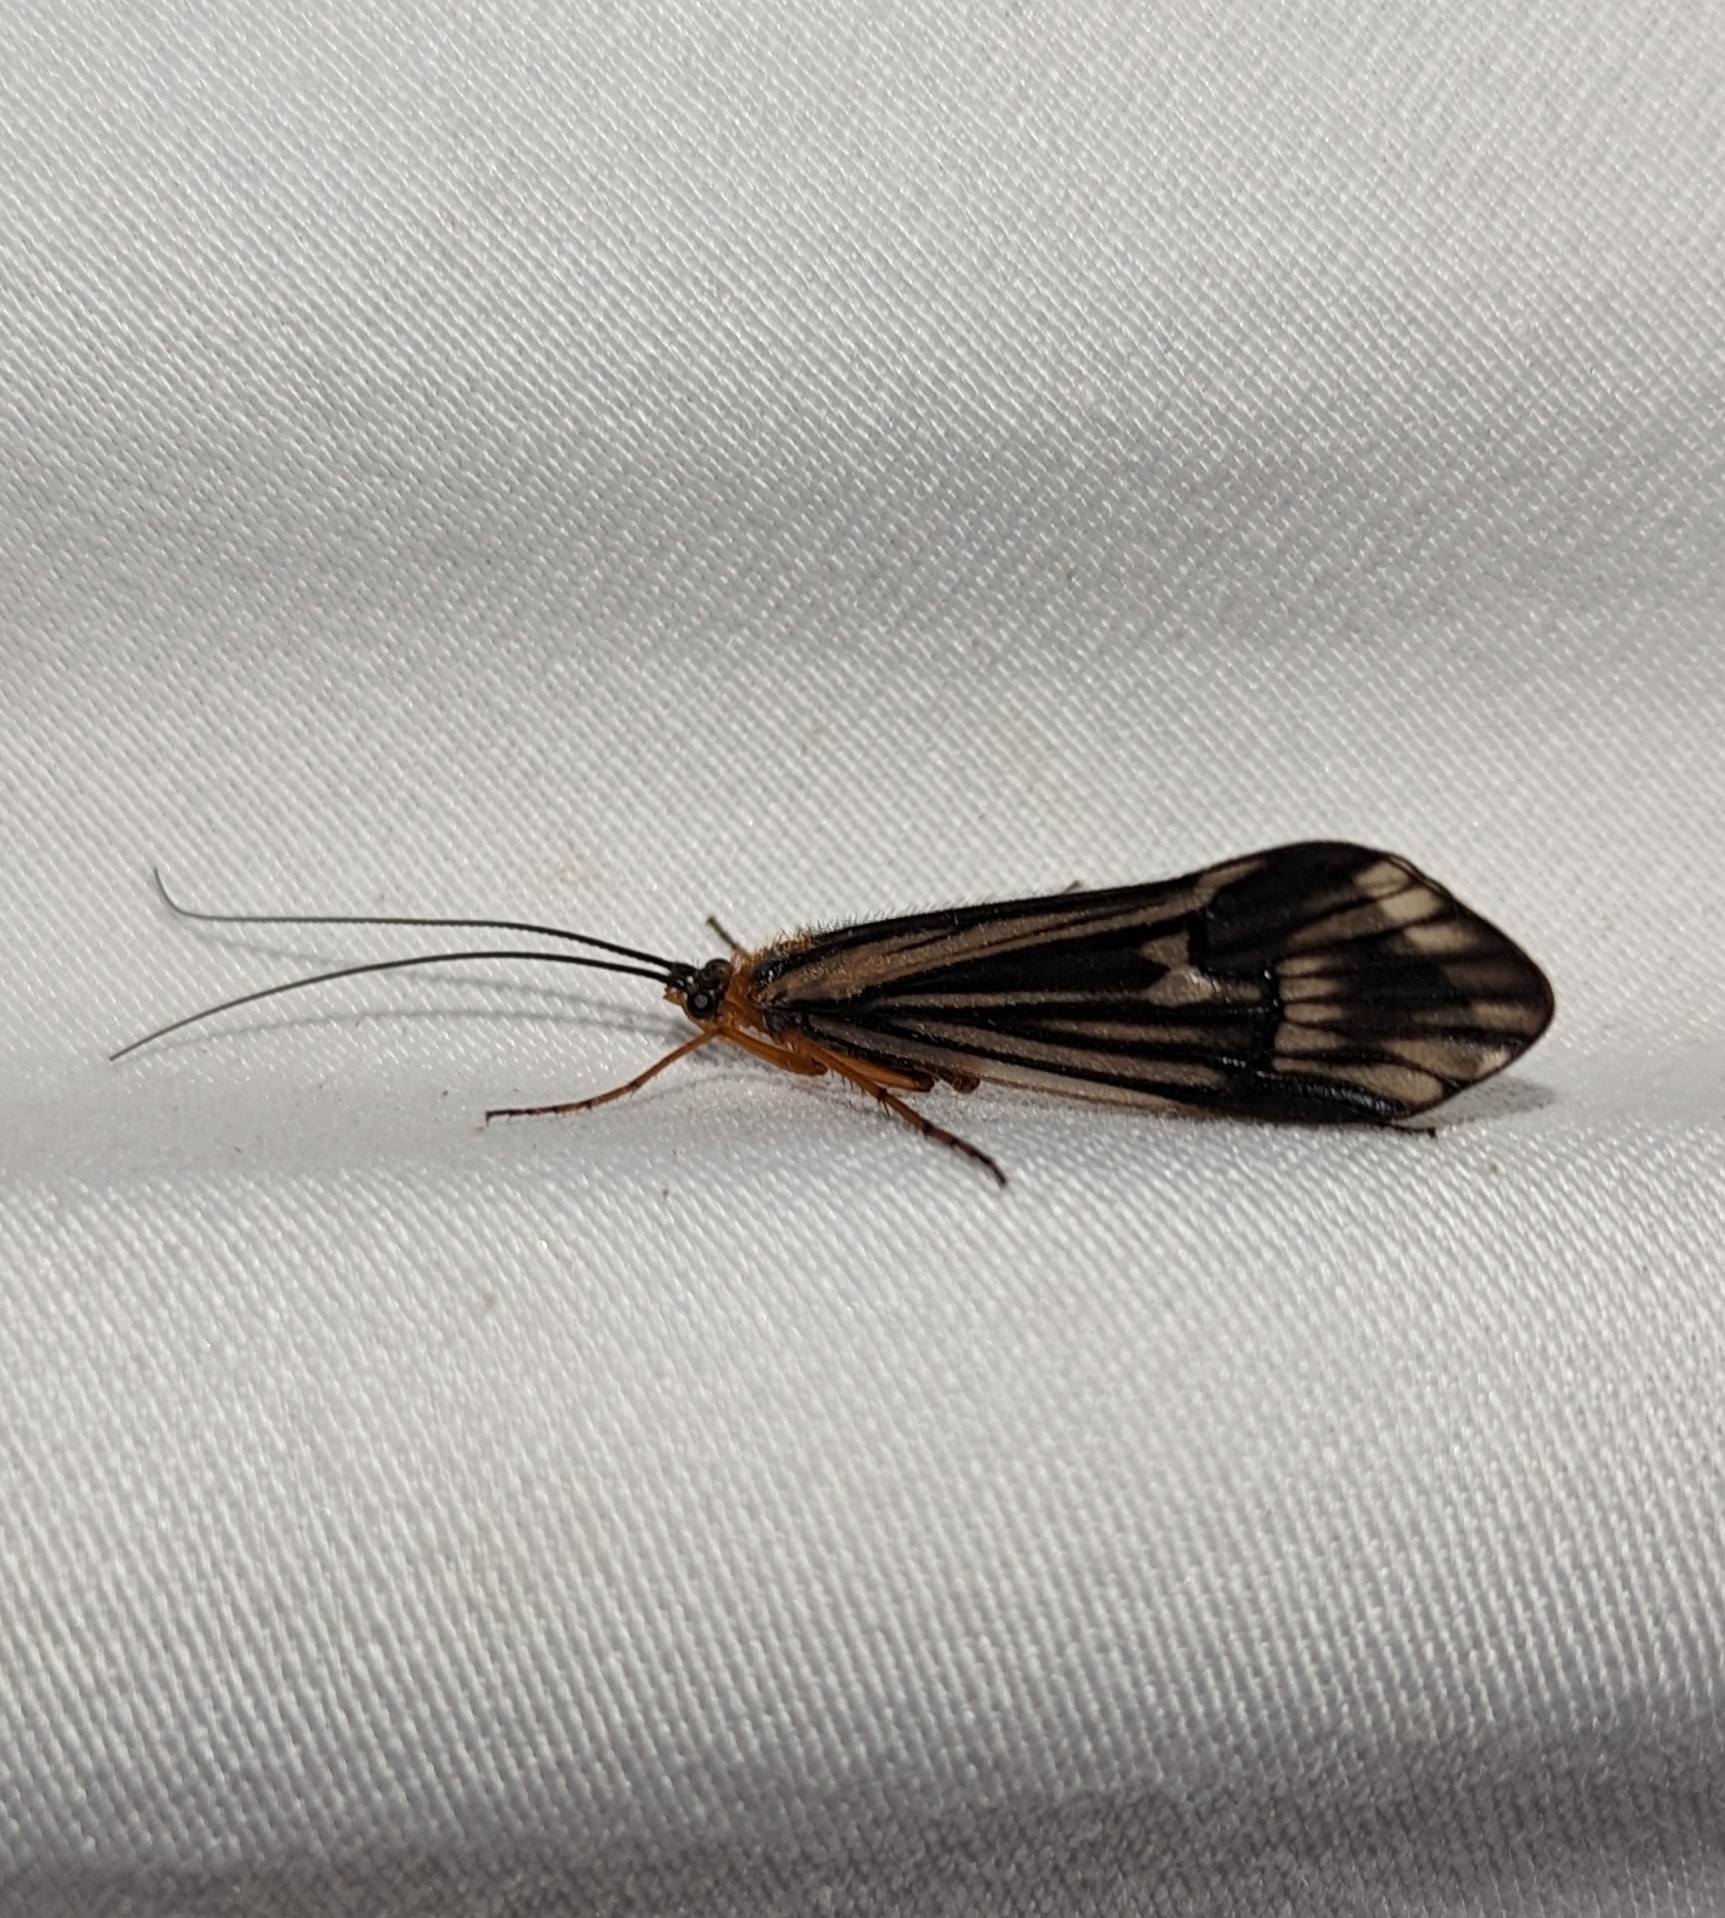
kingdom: Animalia
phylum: Arthropoda
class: Insecta
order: Trichoptera
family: Limnephilidae
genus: Halesochila
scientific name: Halesochila taylori
